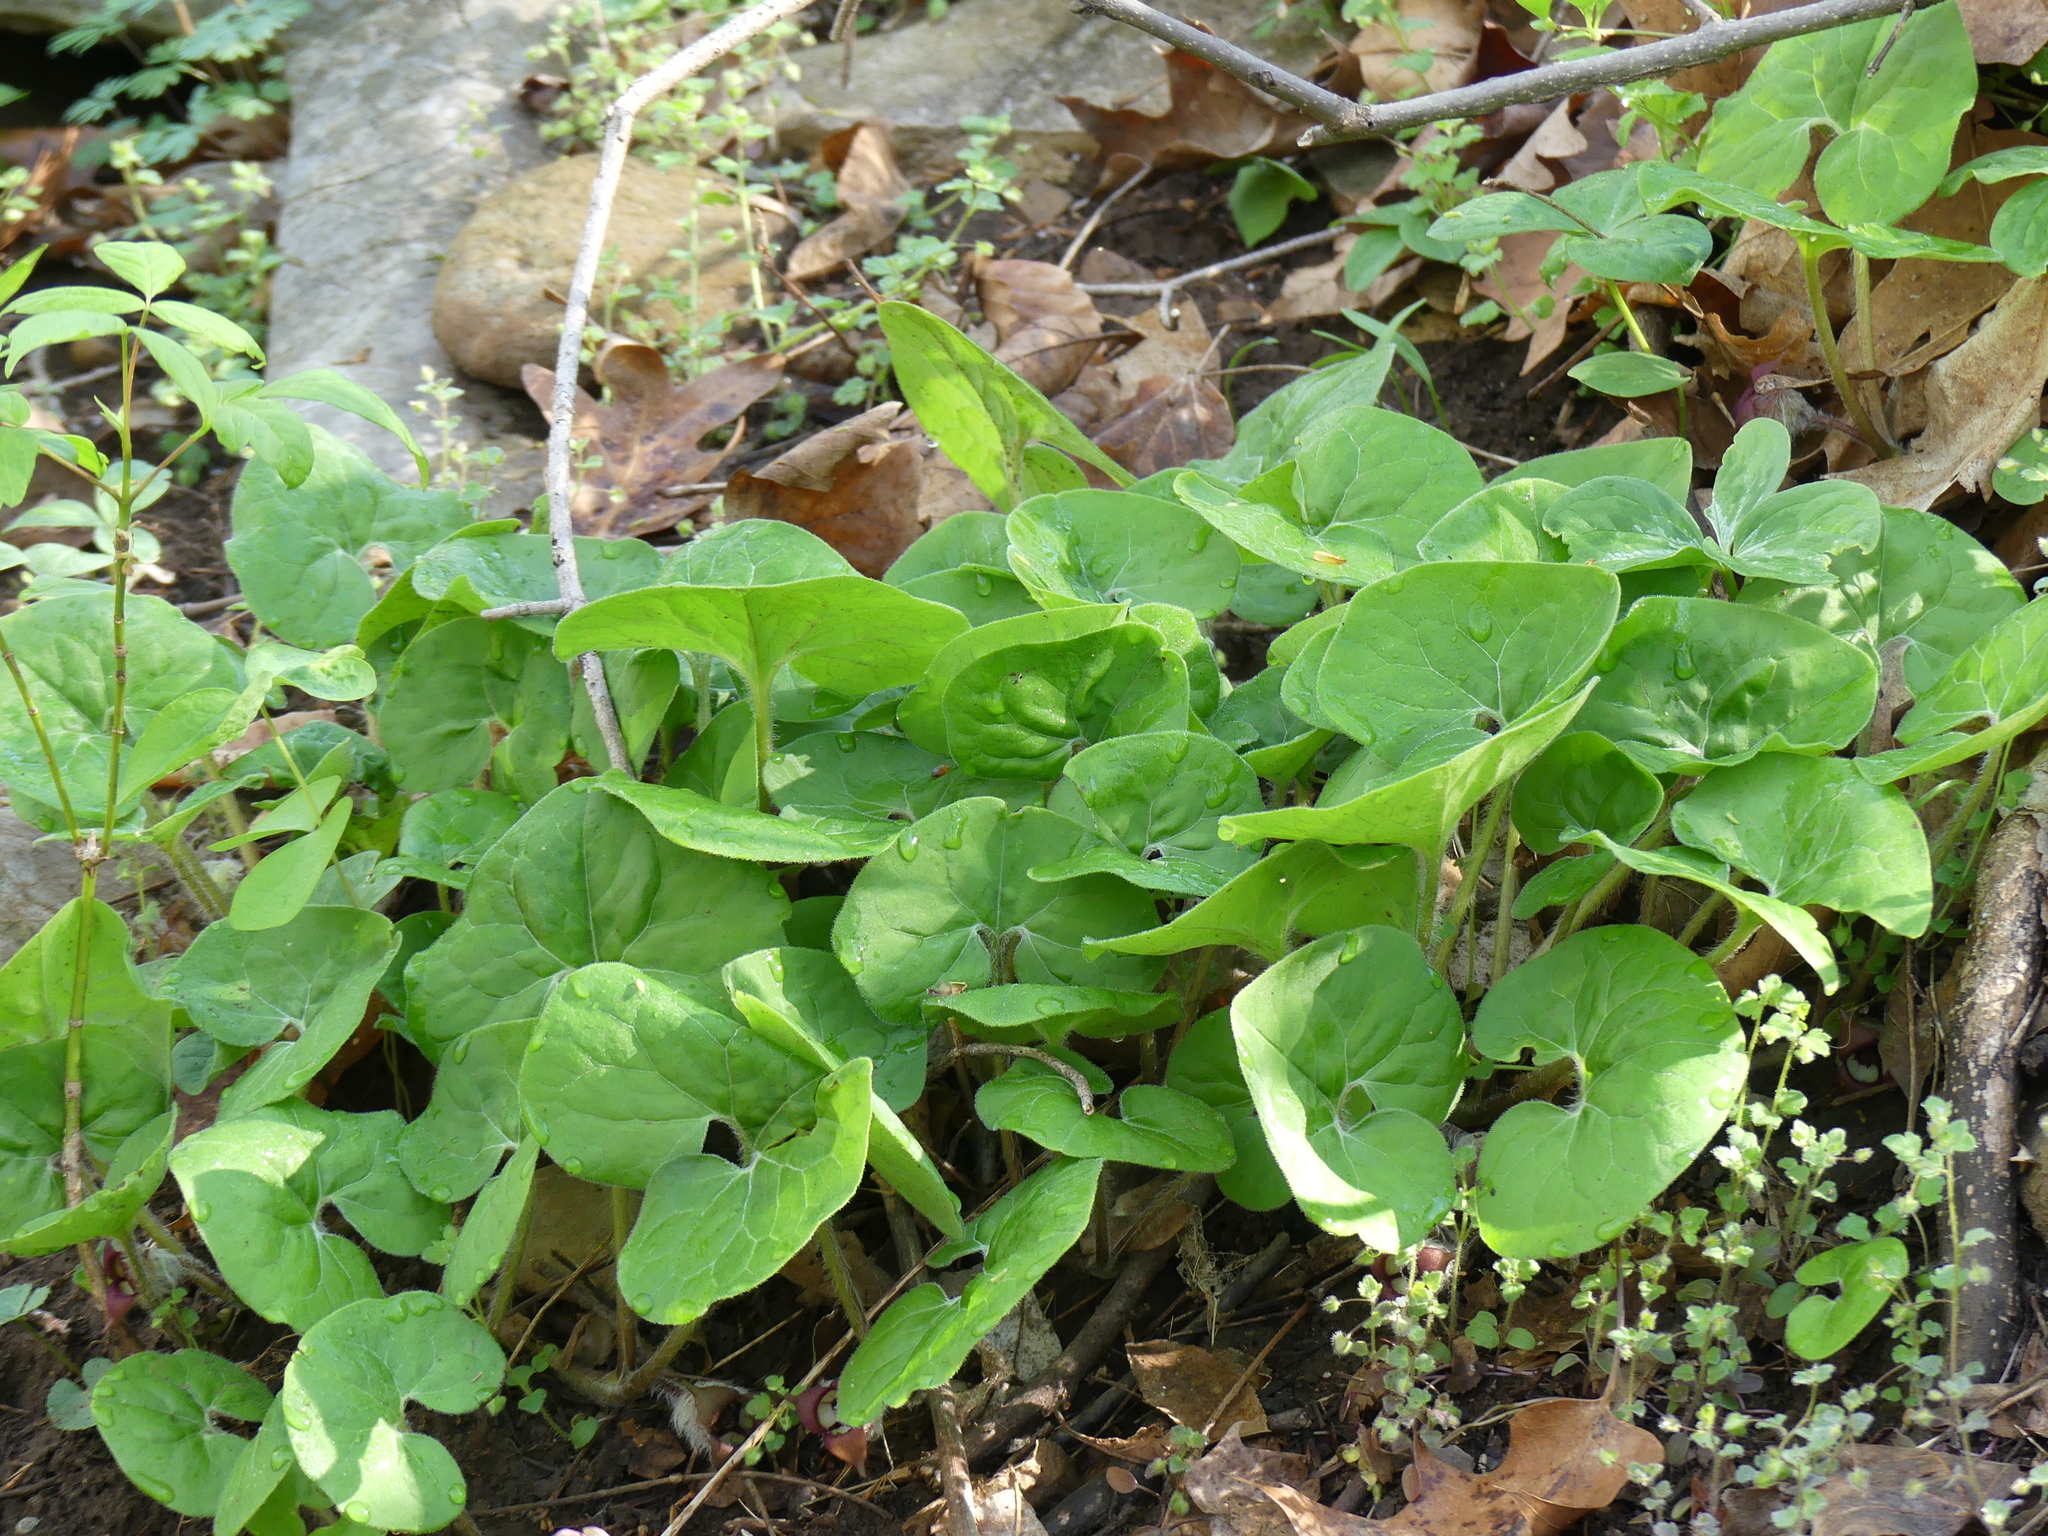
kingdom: Plantae
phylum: Tracheophyta
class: Magnoliopsida
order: Piperales
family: Aristolochiaceae
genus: Asarum
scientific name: Asarum canadense
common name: Wild ginger
